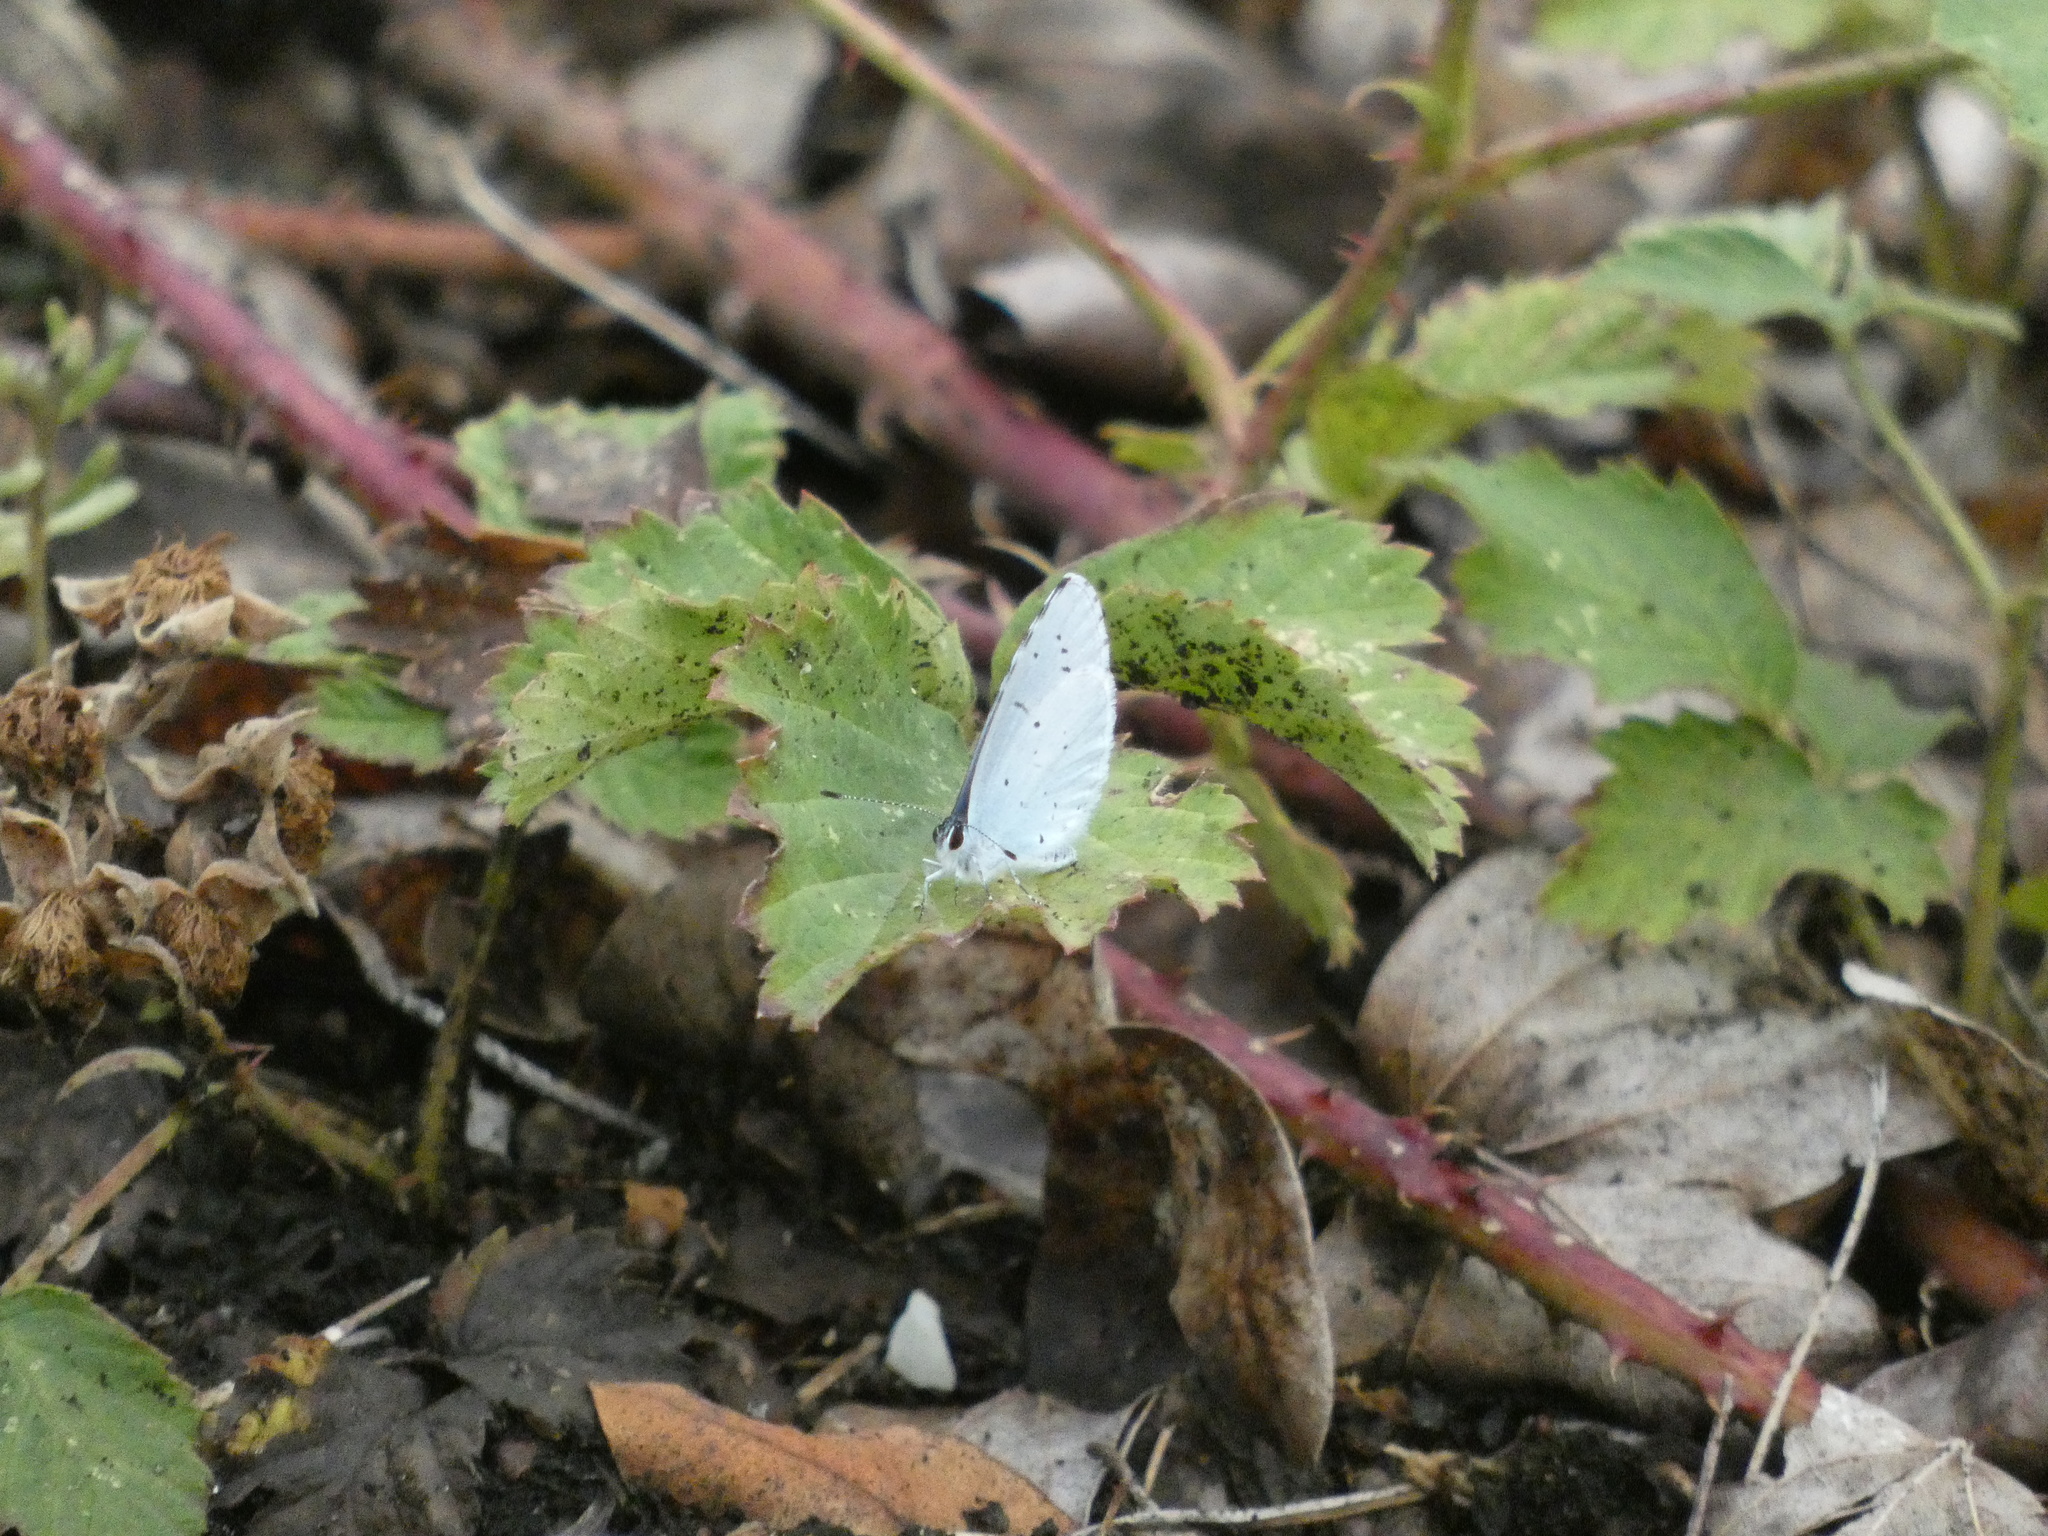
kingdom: Animalia
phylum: Arthropoda
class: Insecta
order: Lepidoptera
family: Lycaenidae
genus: Celastrina
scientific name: Celastrina argiolus
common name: Holly blue
